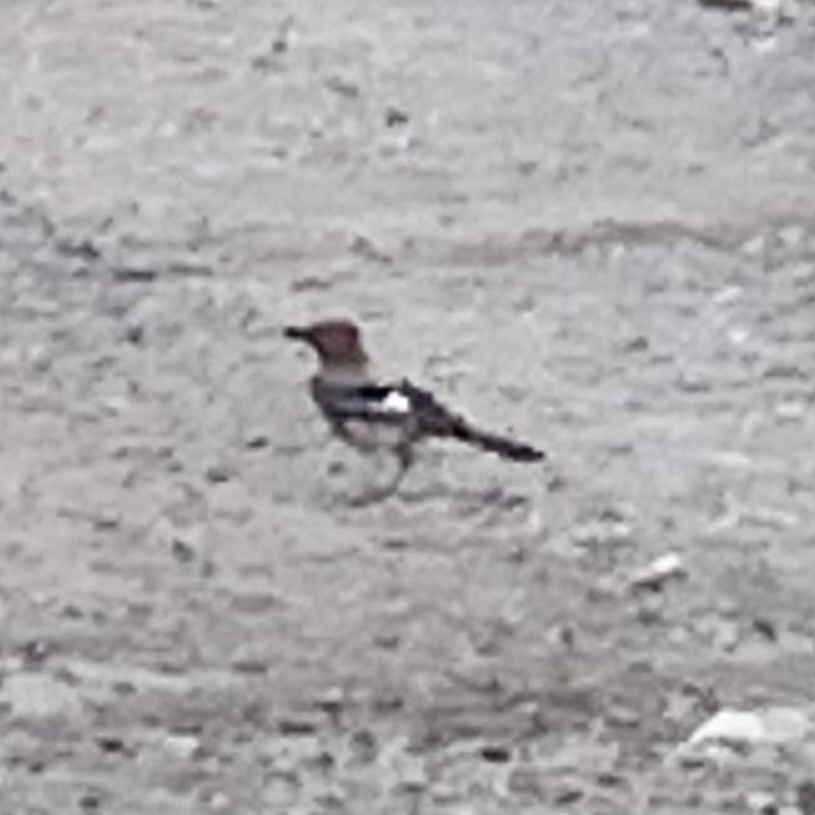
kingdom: Animalia
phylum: Chordata
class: Aves
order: Passeriformes
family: Corvidae
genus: Garrulus
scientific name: Garrulus glandarius
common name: Eurasian jay
